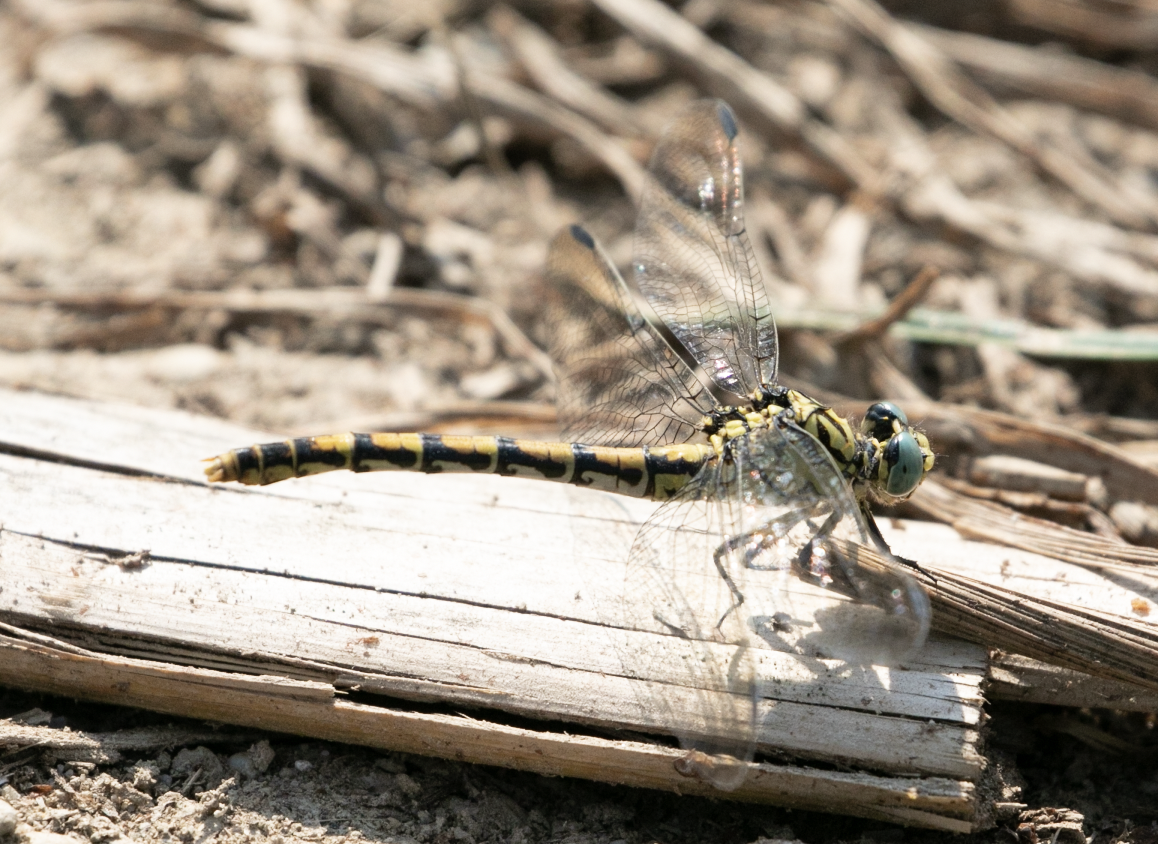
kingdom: Animalia
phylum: Arthropoda
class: Insecta
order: Odonata
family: Gomphidae
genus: Onychogomphus
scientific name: Onychogomphus forcipatus
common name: Small pincertail
